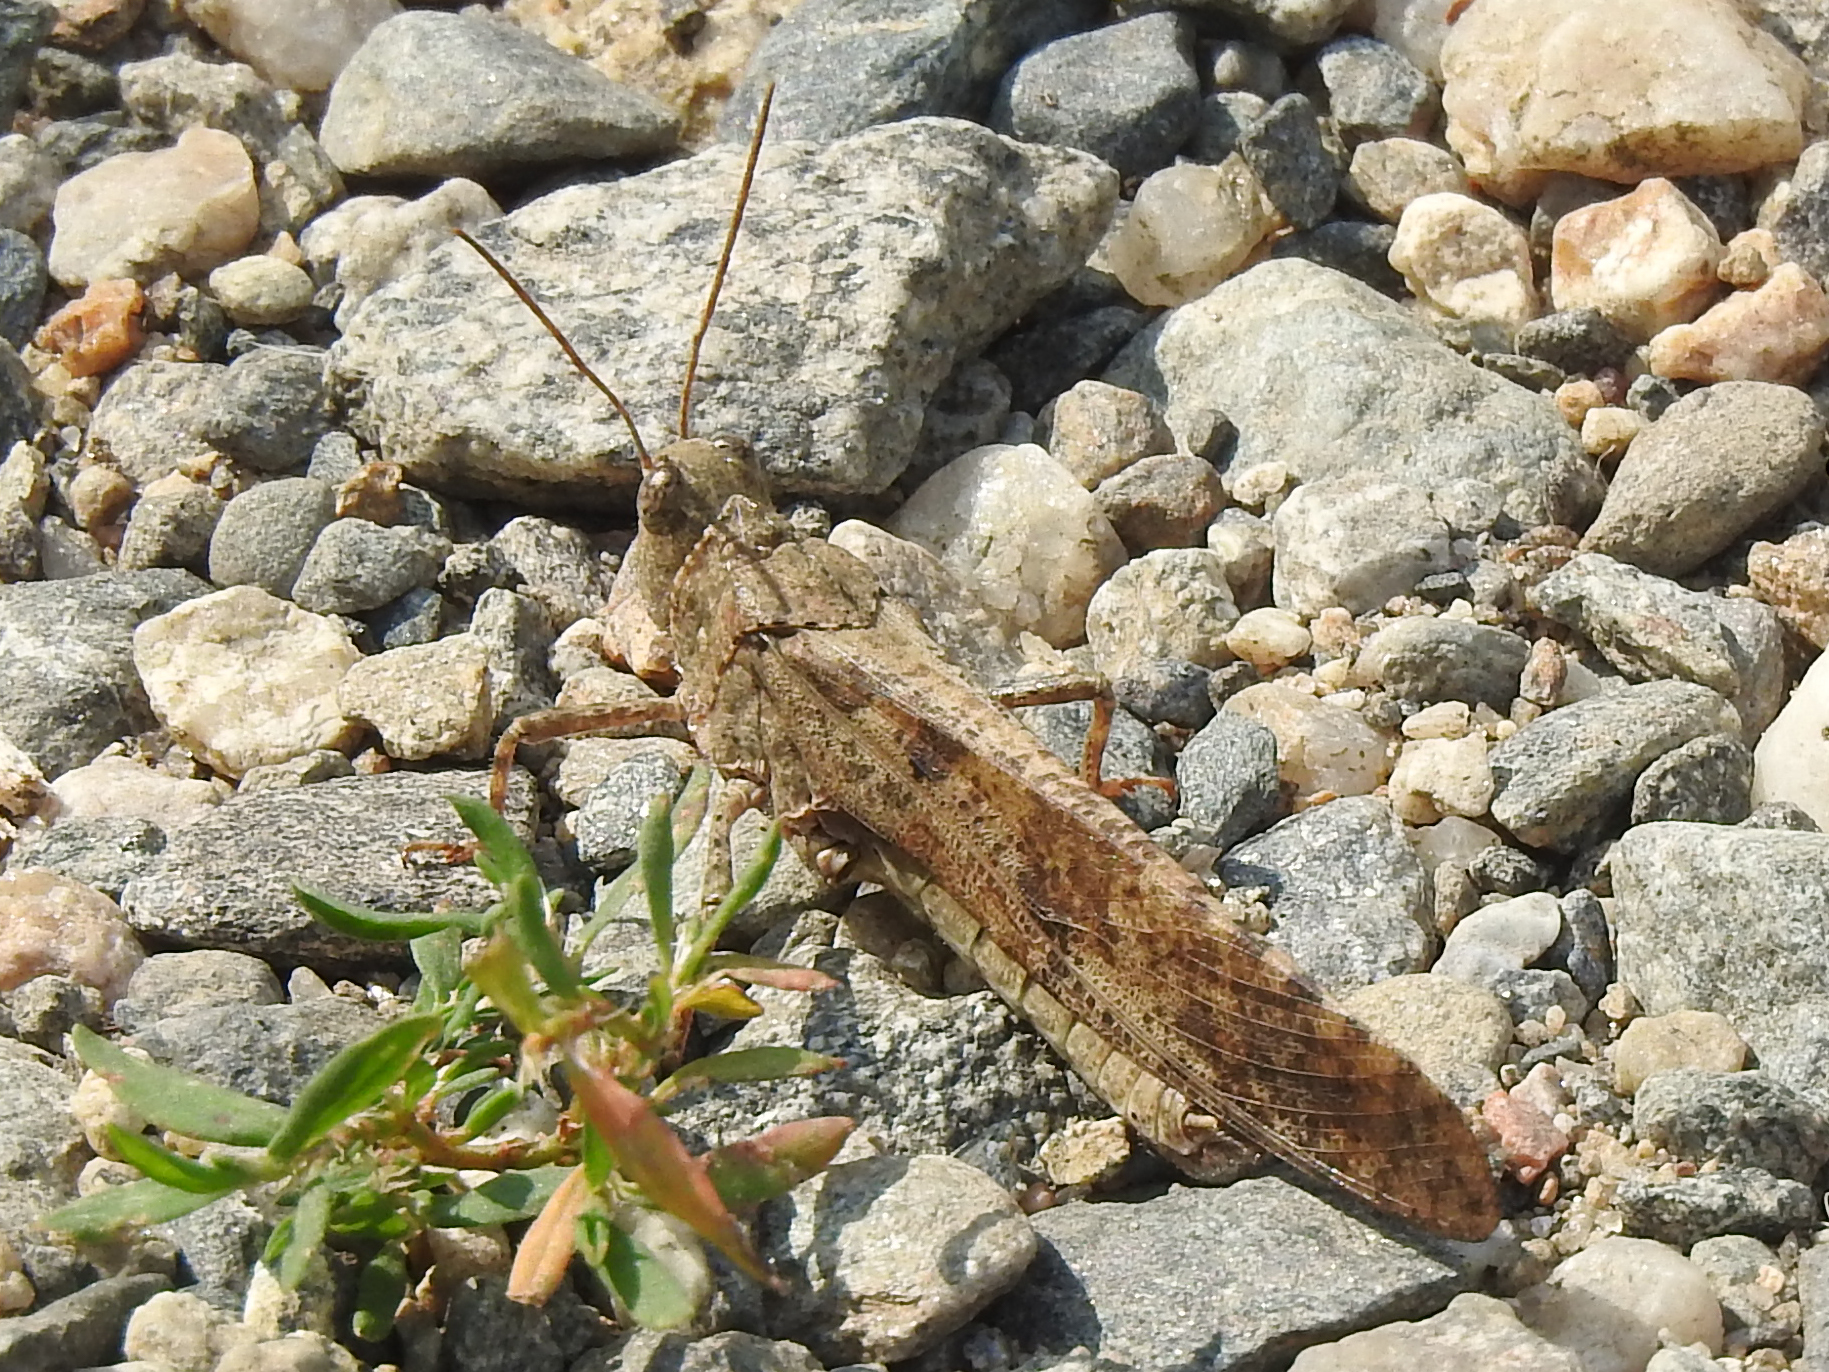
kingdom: Animalia
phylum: Arthropoda
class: Insecta
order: Orthoptera
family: Acrididae
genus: Dissosteira
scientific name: Dissosteira carolina
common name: Carolina grasshopper
